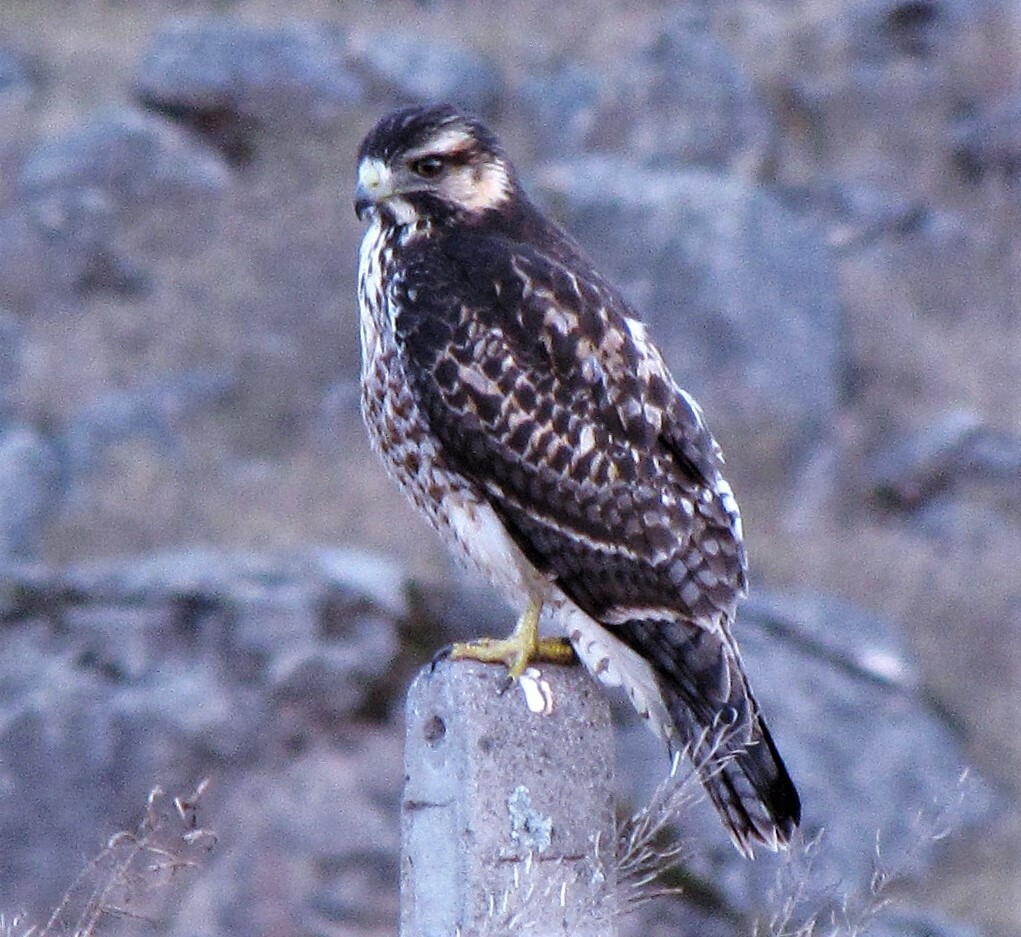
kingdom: Animalia
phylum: Chordata
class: Aves
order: Accipitriformes
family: Accipitridae
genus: Buteo
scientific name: Buteo polyosoma
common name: Variable hawk
